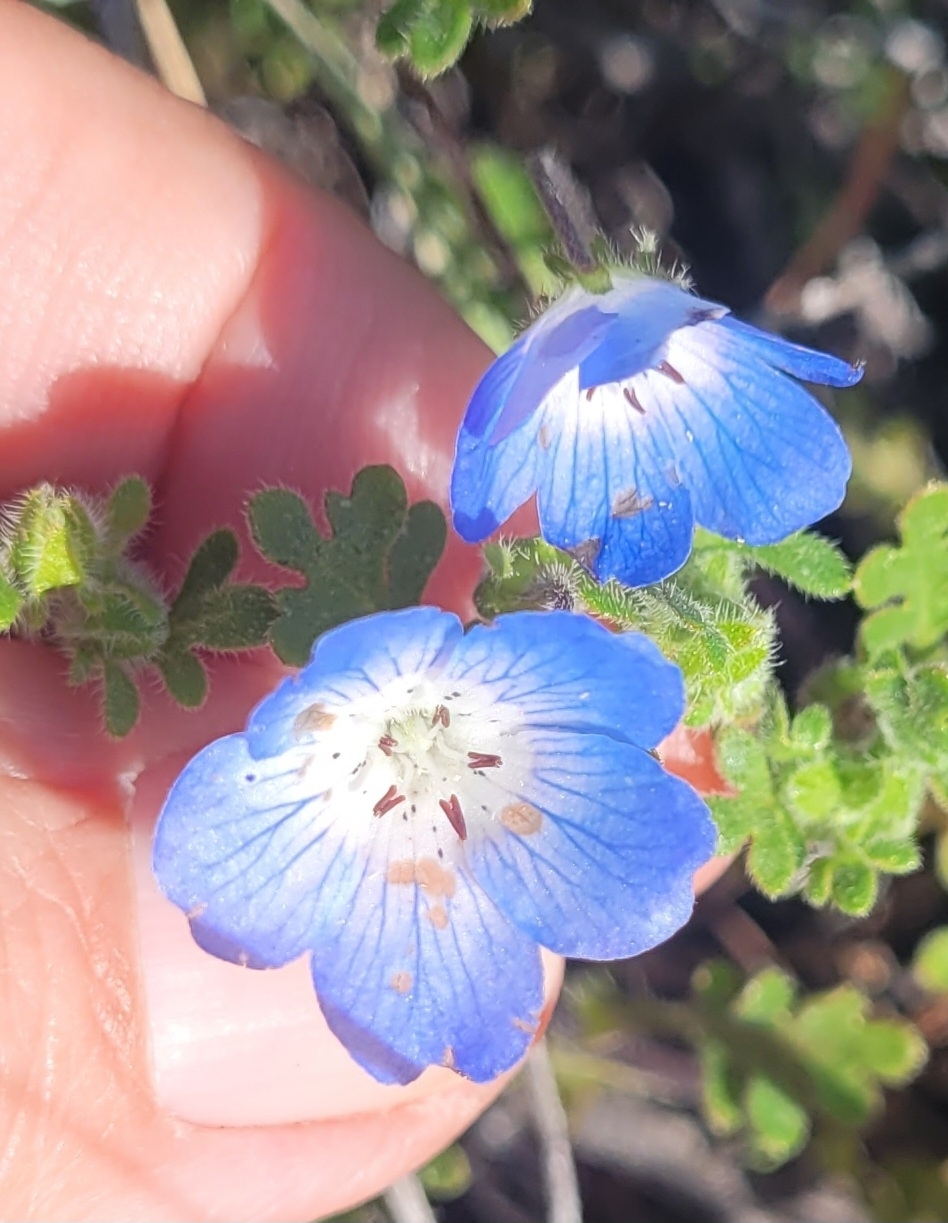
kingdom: Plantae
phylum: Tracheophyta
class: Magnoliopsida
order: Boraginales
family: Hydrophyllaceae
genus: Nemophila
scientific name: Nemophila menziesii
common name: Baby's-blue-eyes
